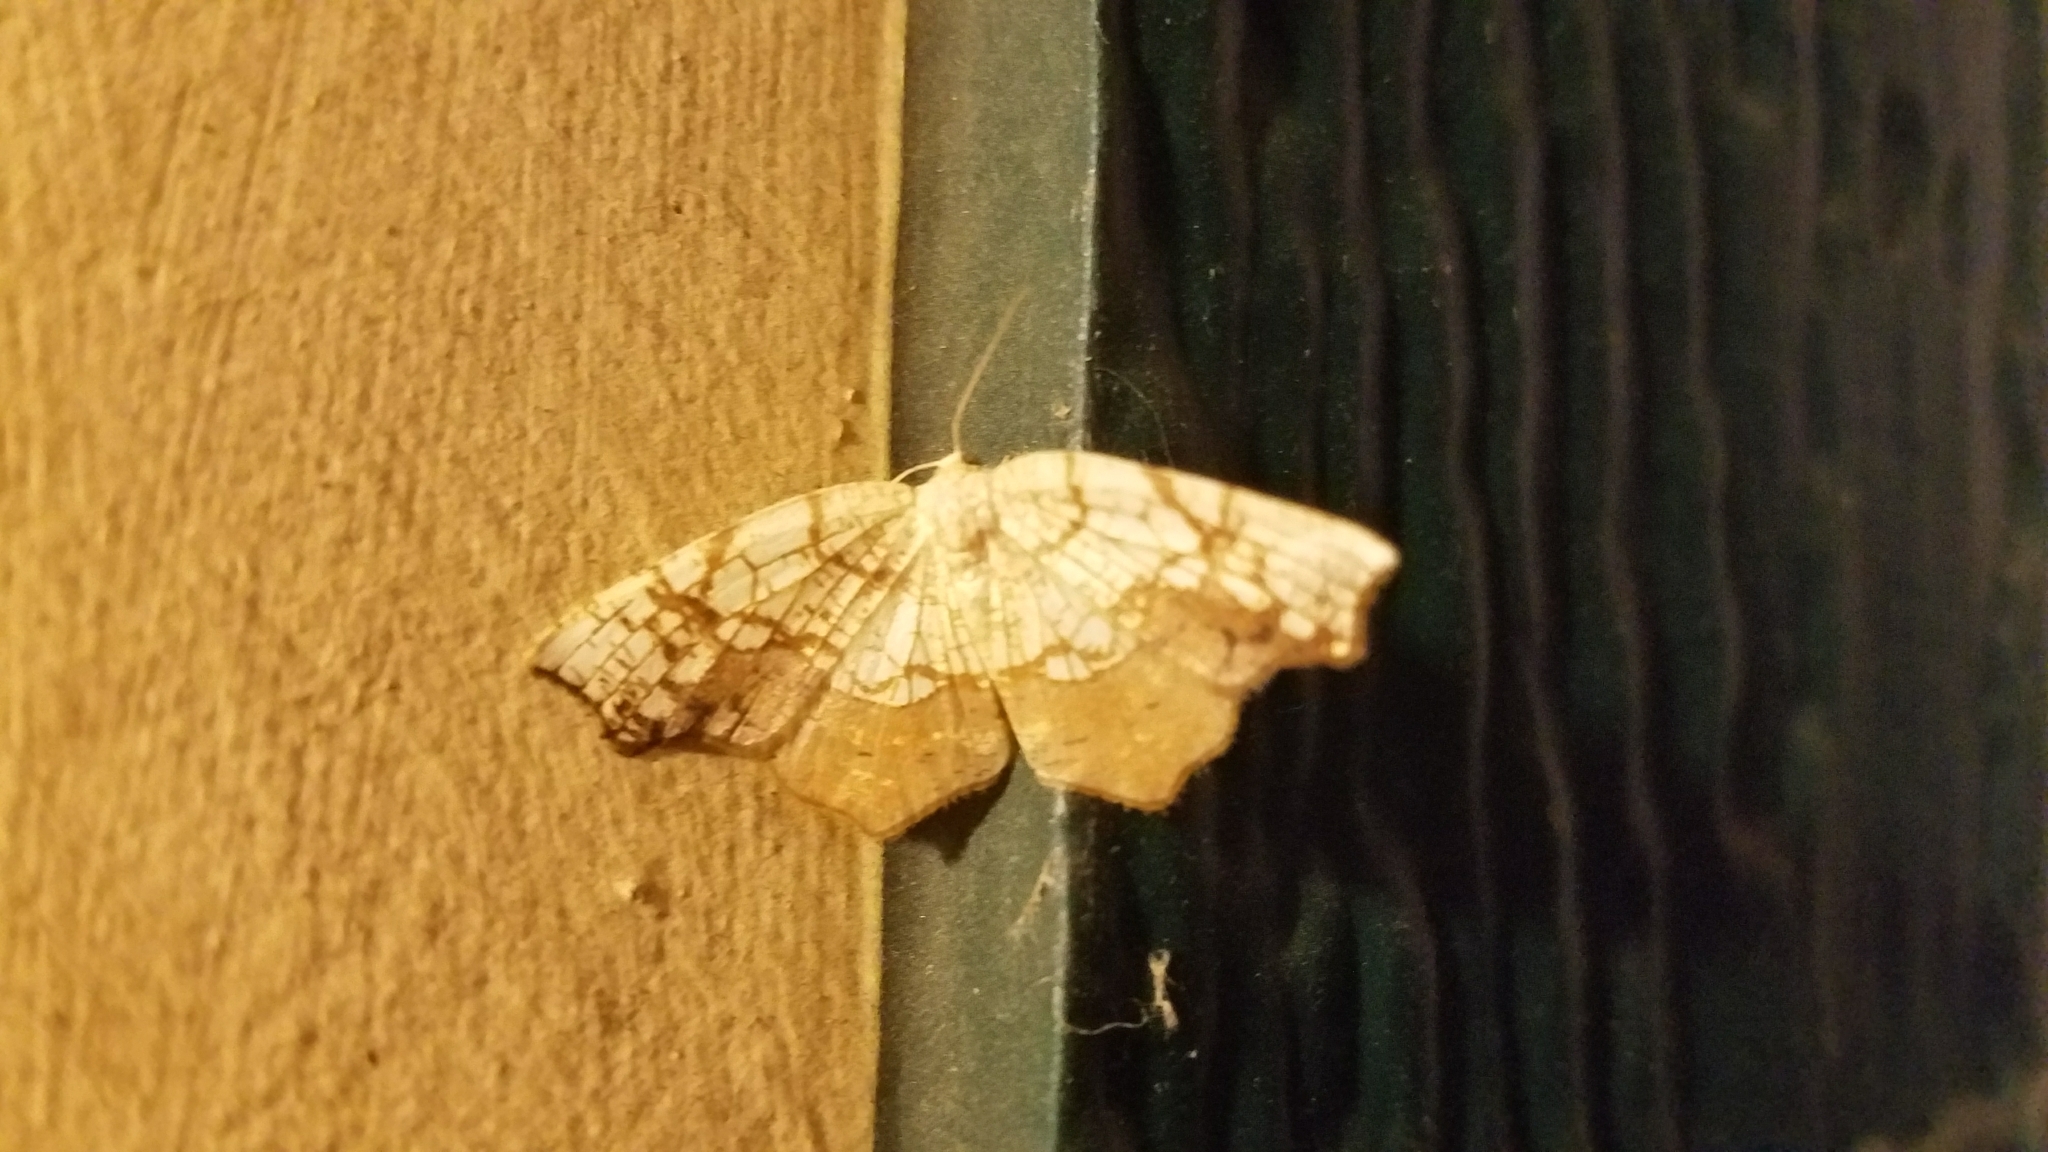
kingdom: Animalia
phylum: Arthropoda
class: Insecta
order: Lepidoptera
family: Geometridae
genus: Nematocampa
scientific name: Nematocampa resistaria
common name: Horned spanworm moth
